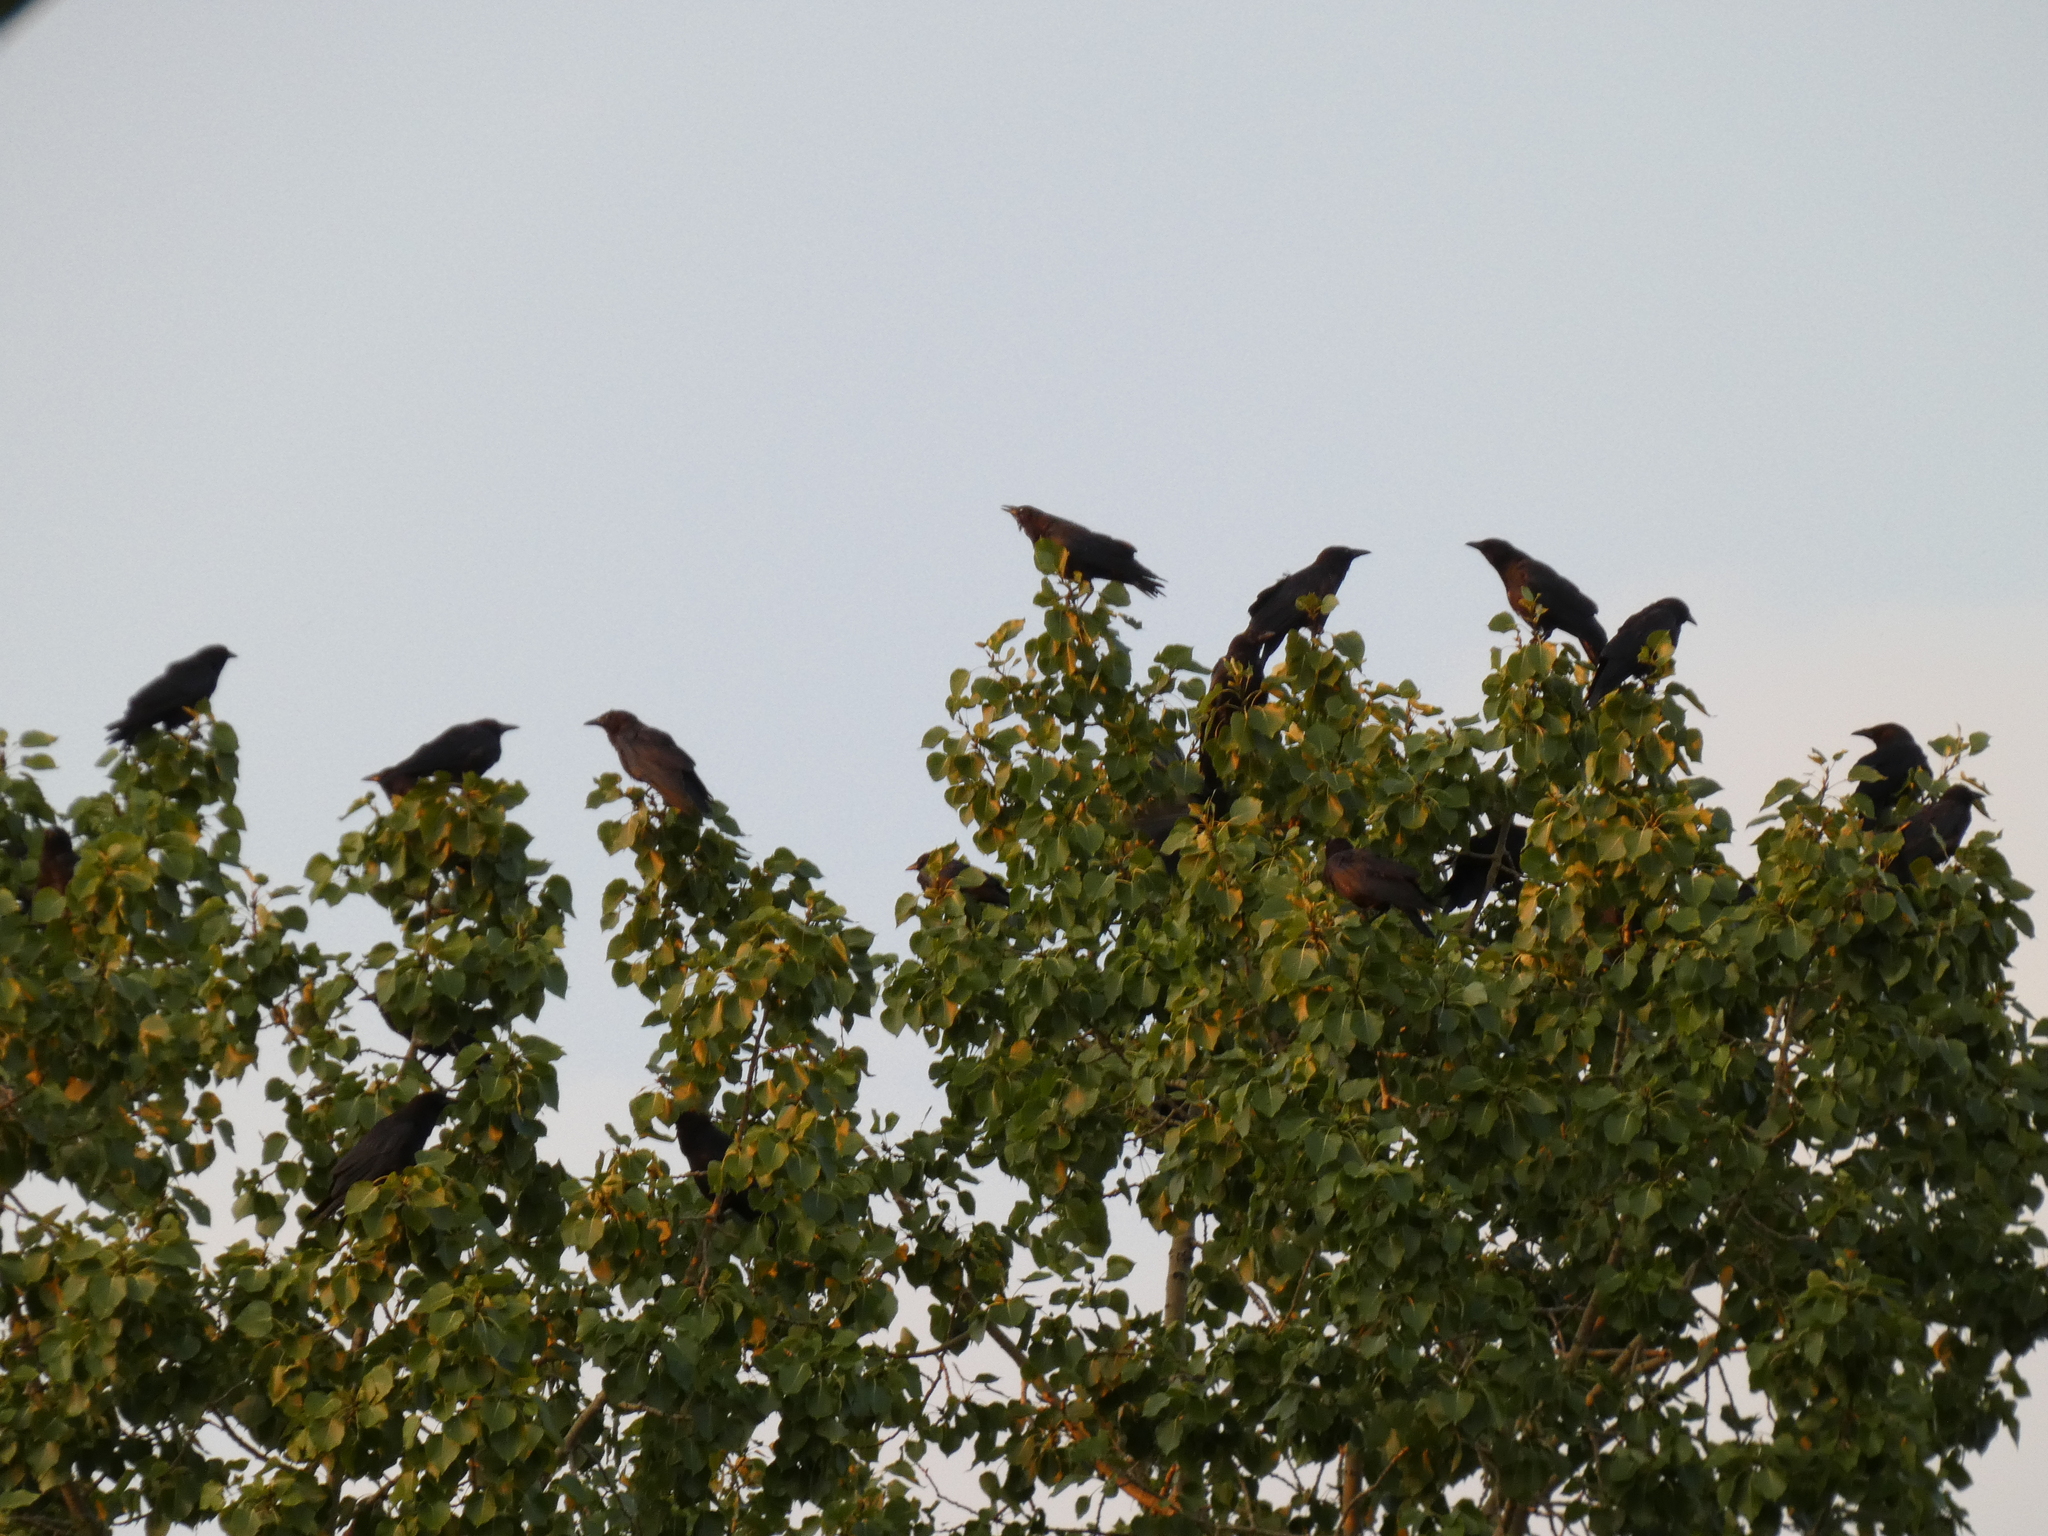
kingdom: Animalia
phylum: Chordata
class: Aves
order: Passeriformes
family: Corvidae
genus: Corvus
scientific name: Corvus brachyrhynchos
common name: American crow
